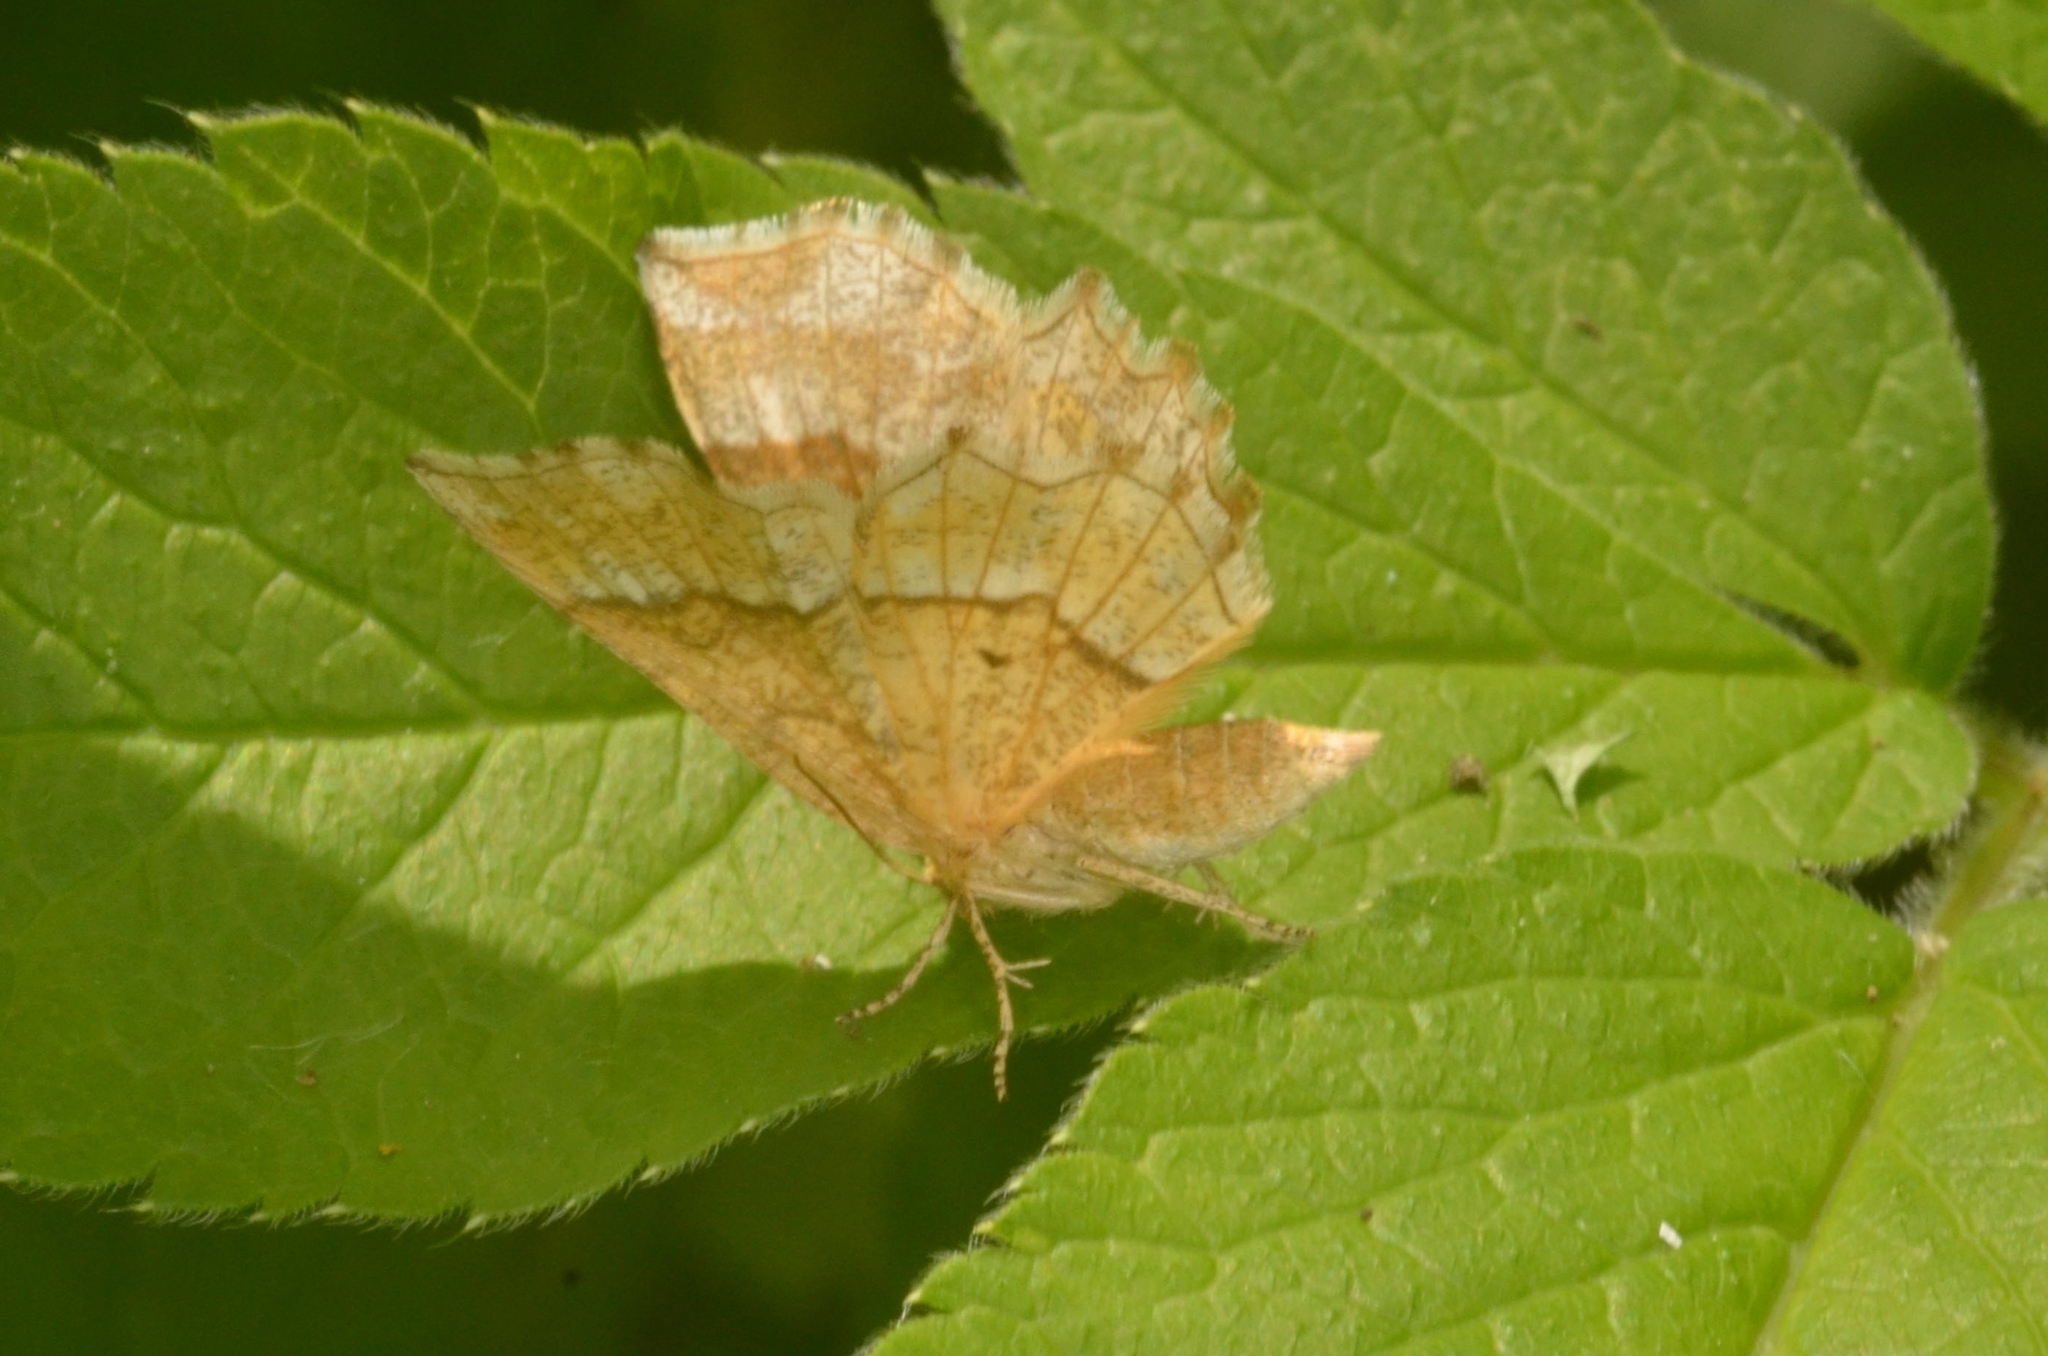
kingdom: Animalia
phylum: Arthropoda
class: Insecta
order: Lepidoptera
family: Geometridae
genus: Cepphis
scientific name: Cepphis advenaria
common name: Little thorn
